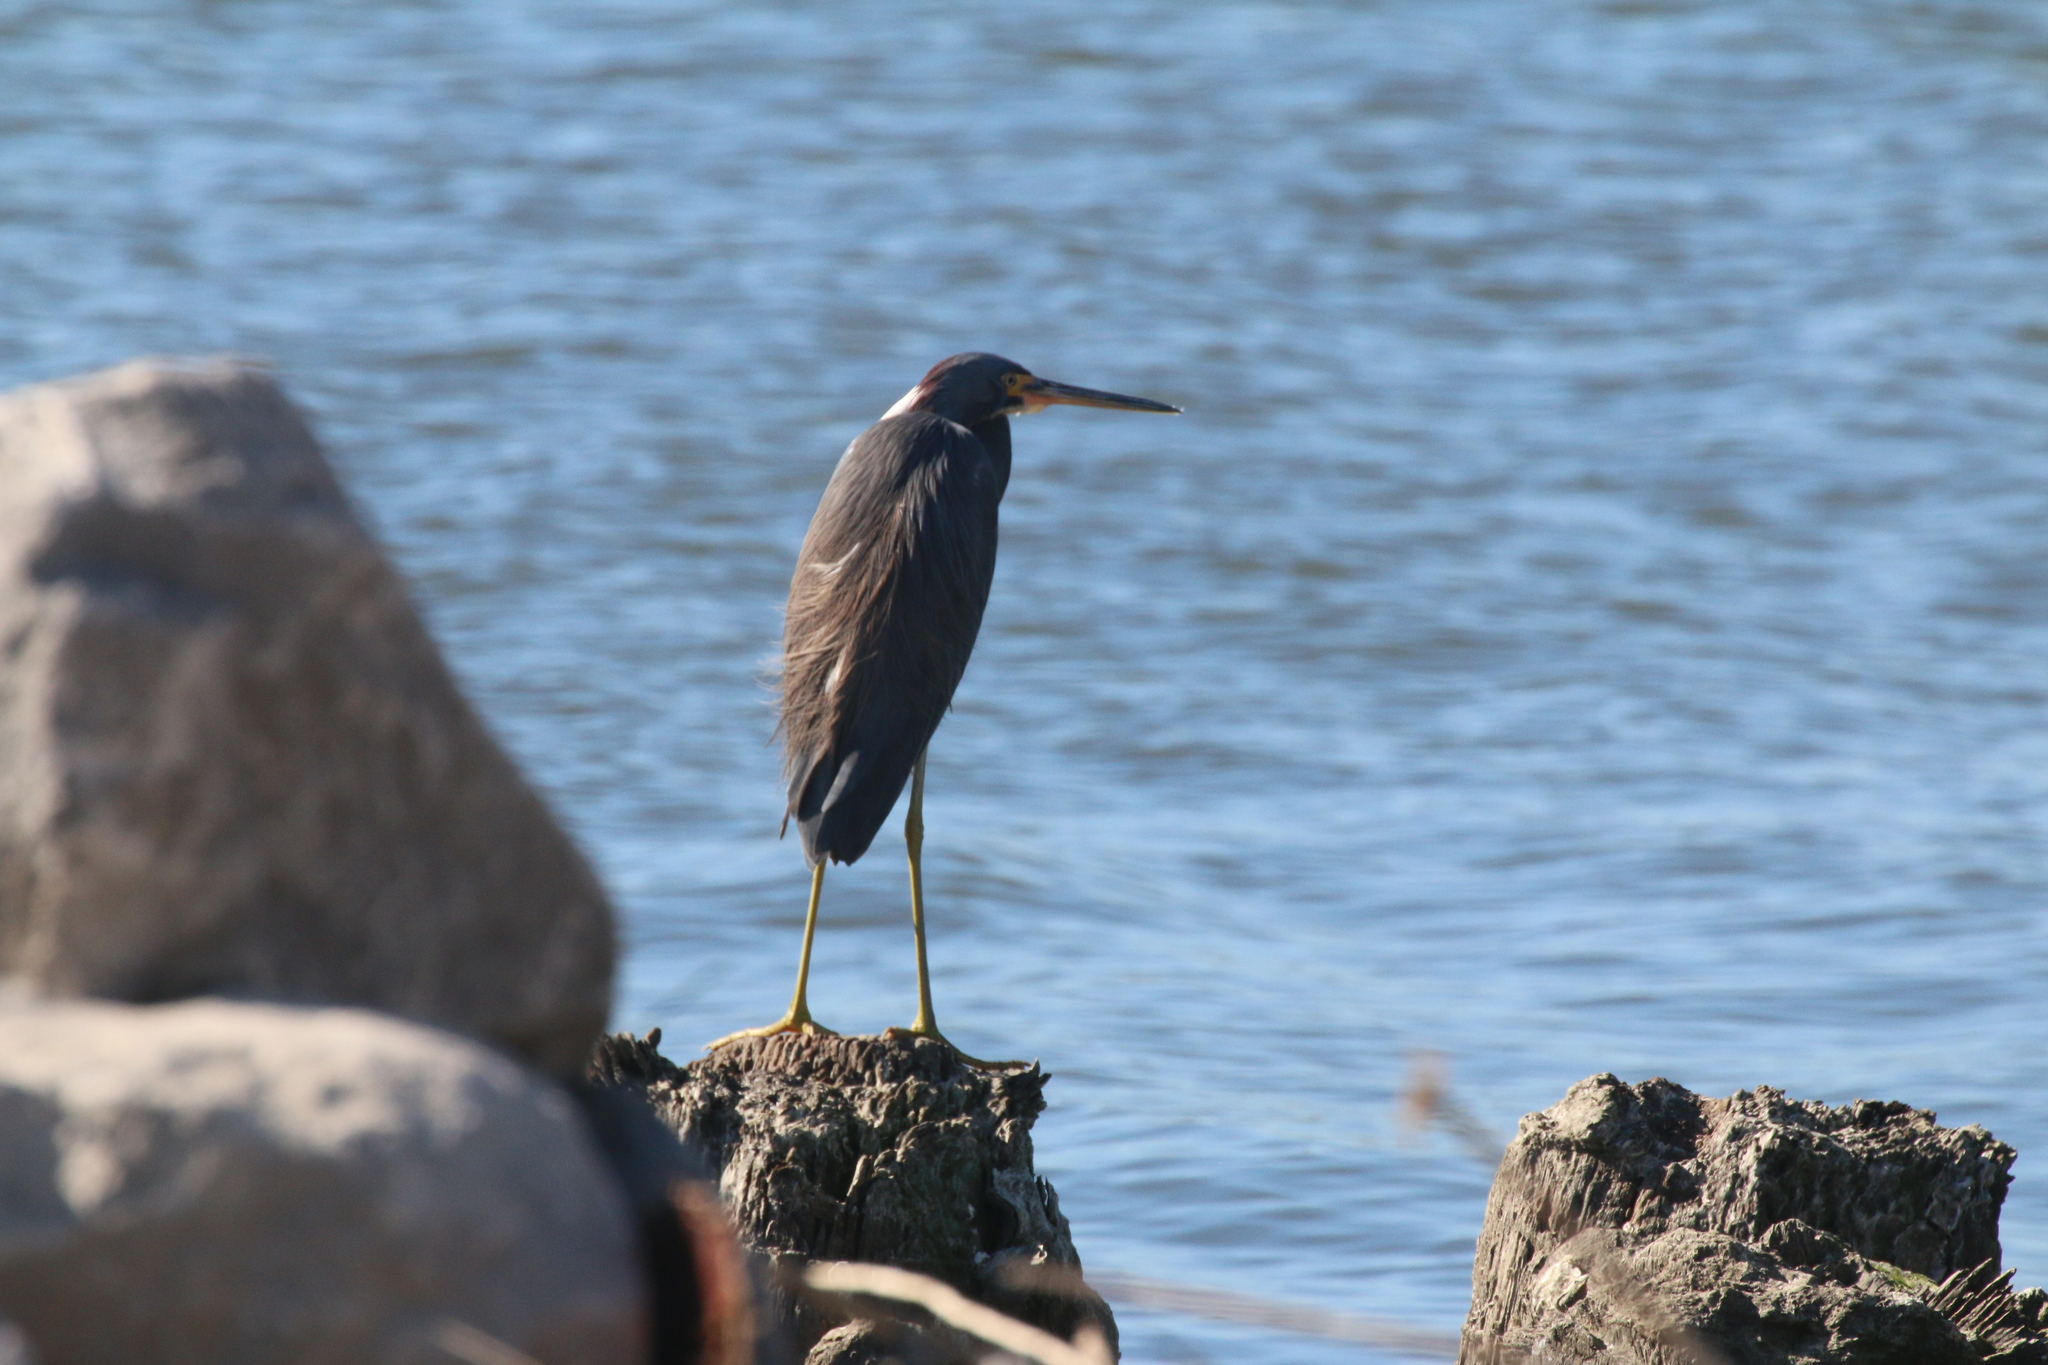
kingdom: Animalia
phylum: Chordata
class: Aves
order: Pelecaniformes
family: Ardeidae
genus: Egretta
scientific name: Egretta tricolor
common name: Tricolored heron
